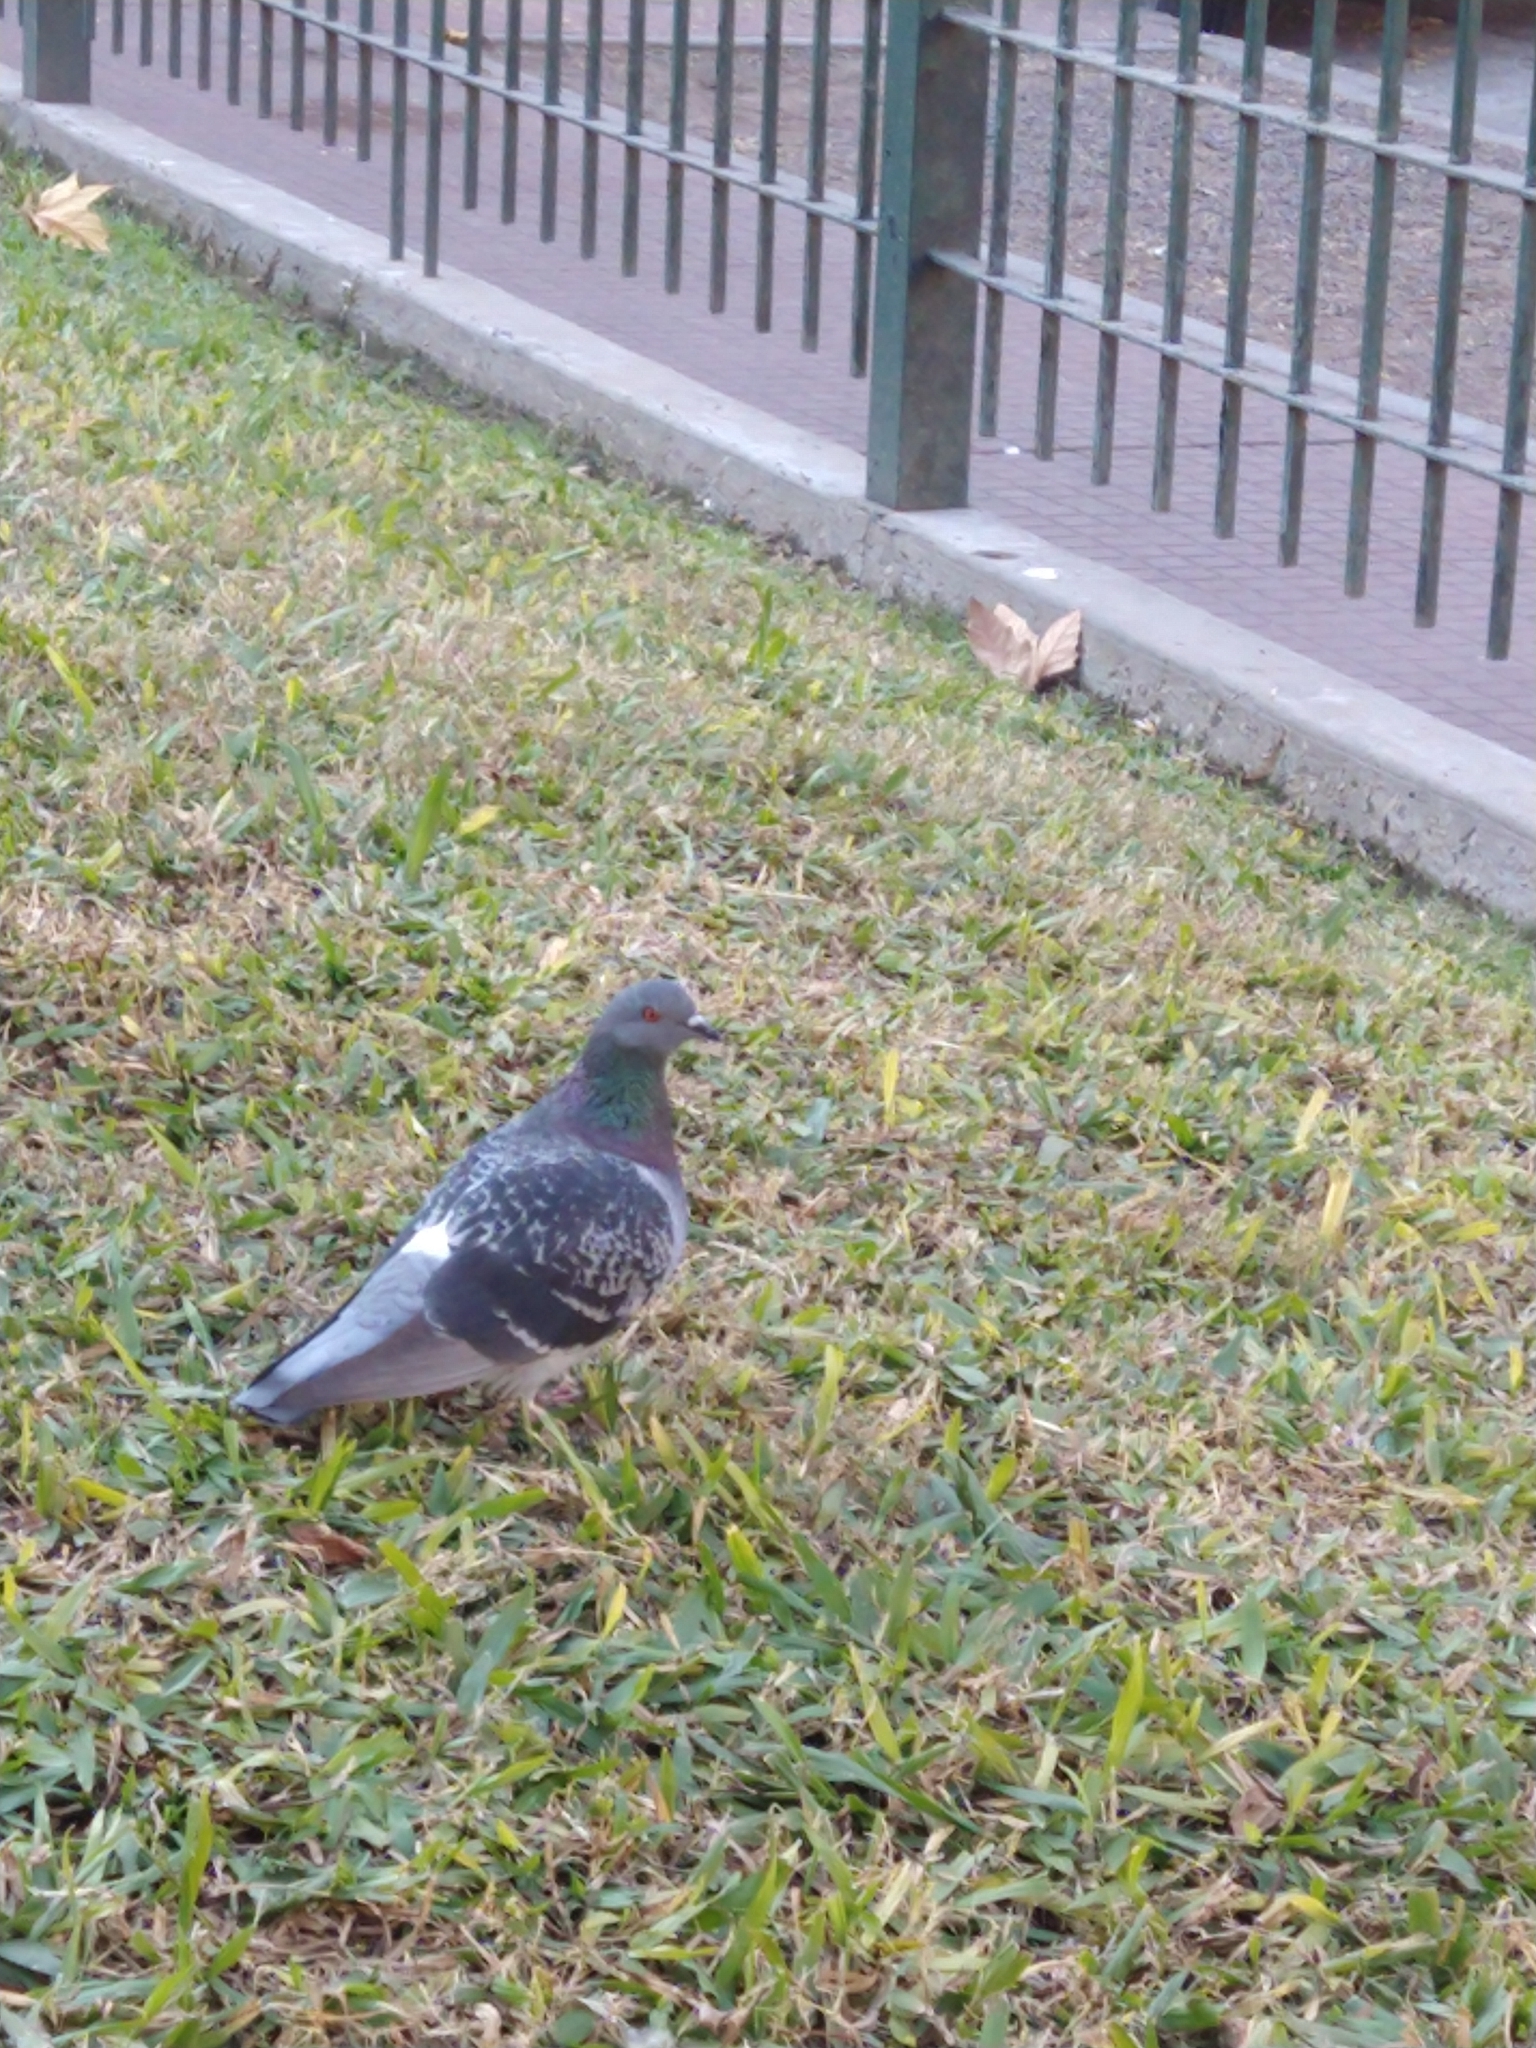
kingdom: Animalia
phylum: Chordata
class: Aves
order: Columbiformes
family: Columbidae
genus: Columba
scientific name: Columba livia
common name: Rock pigeon
